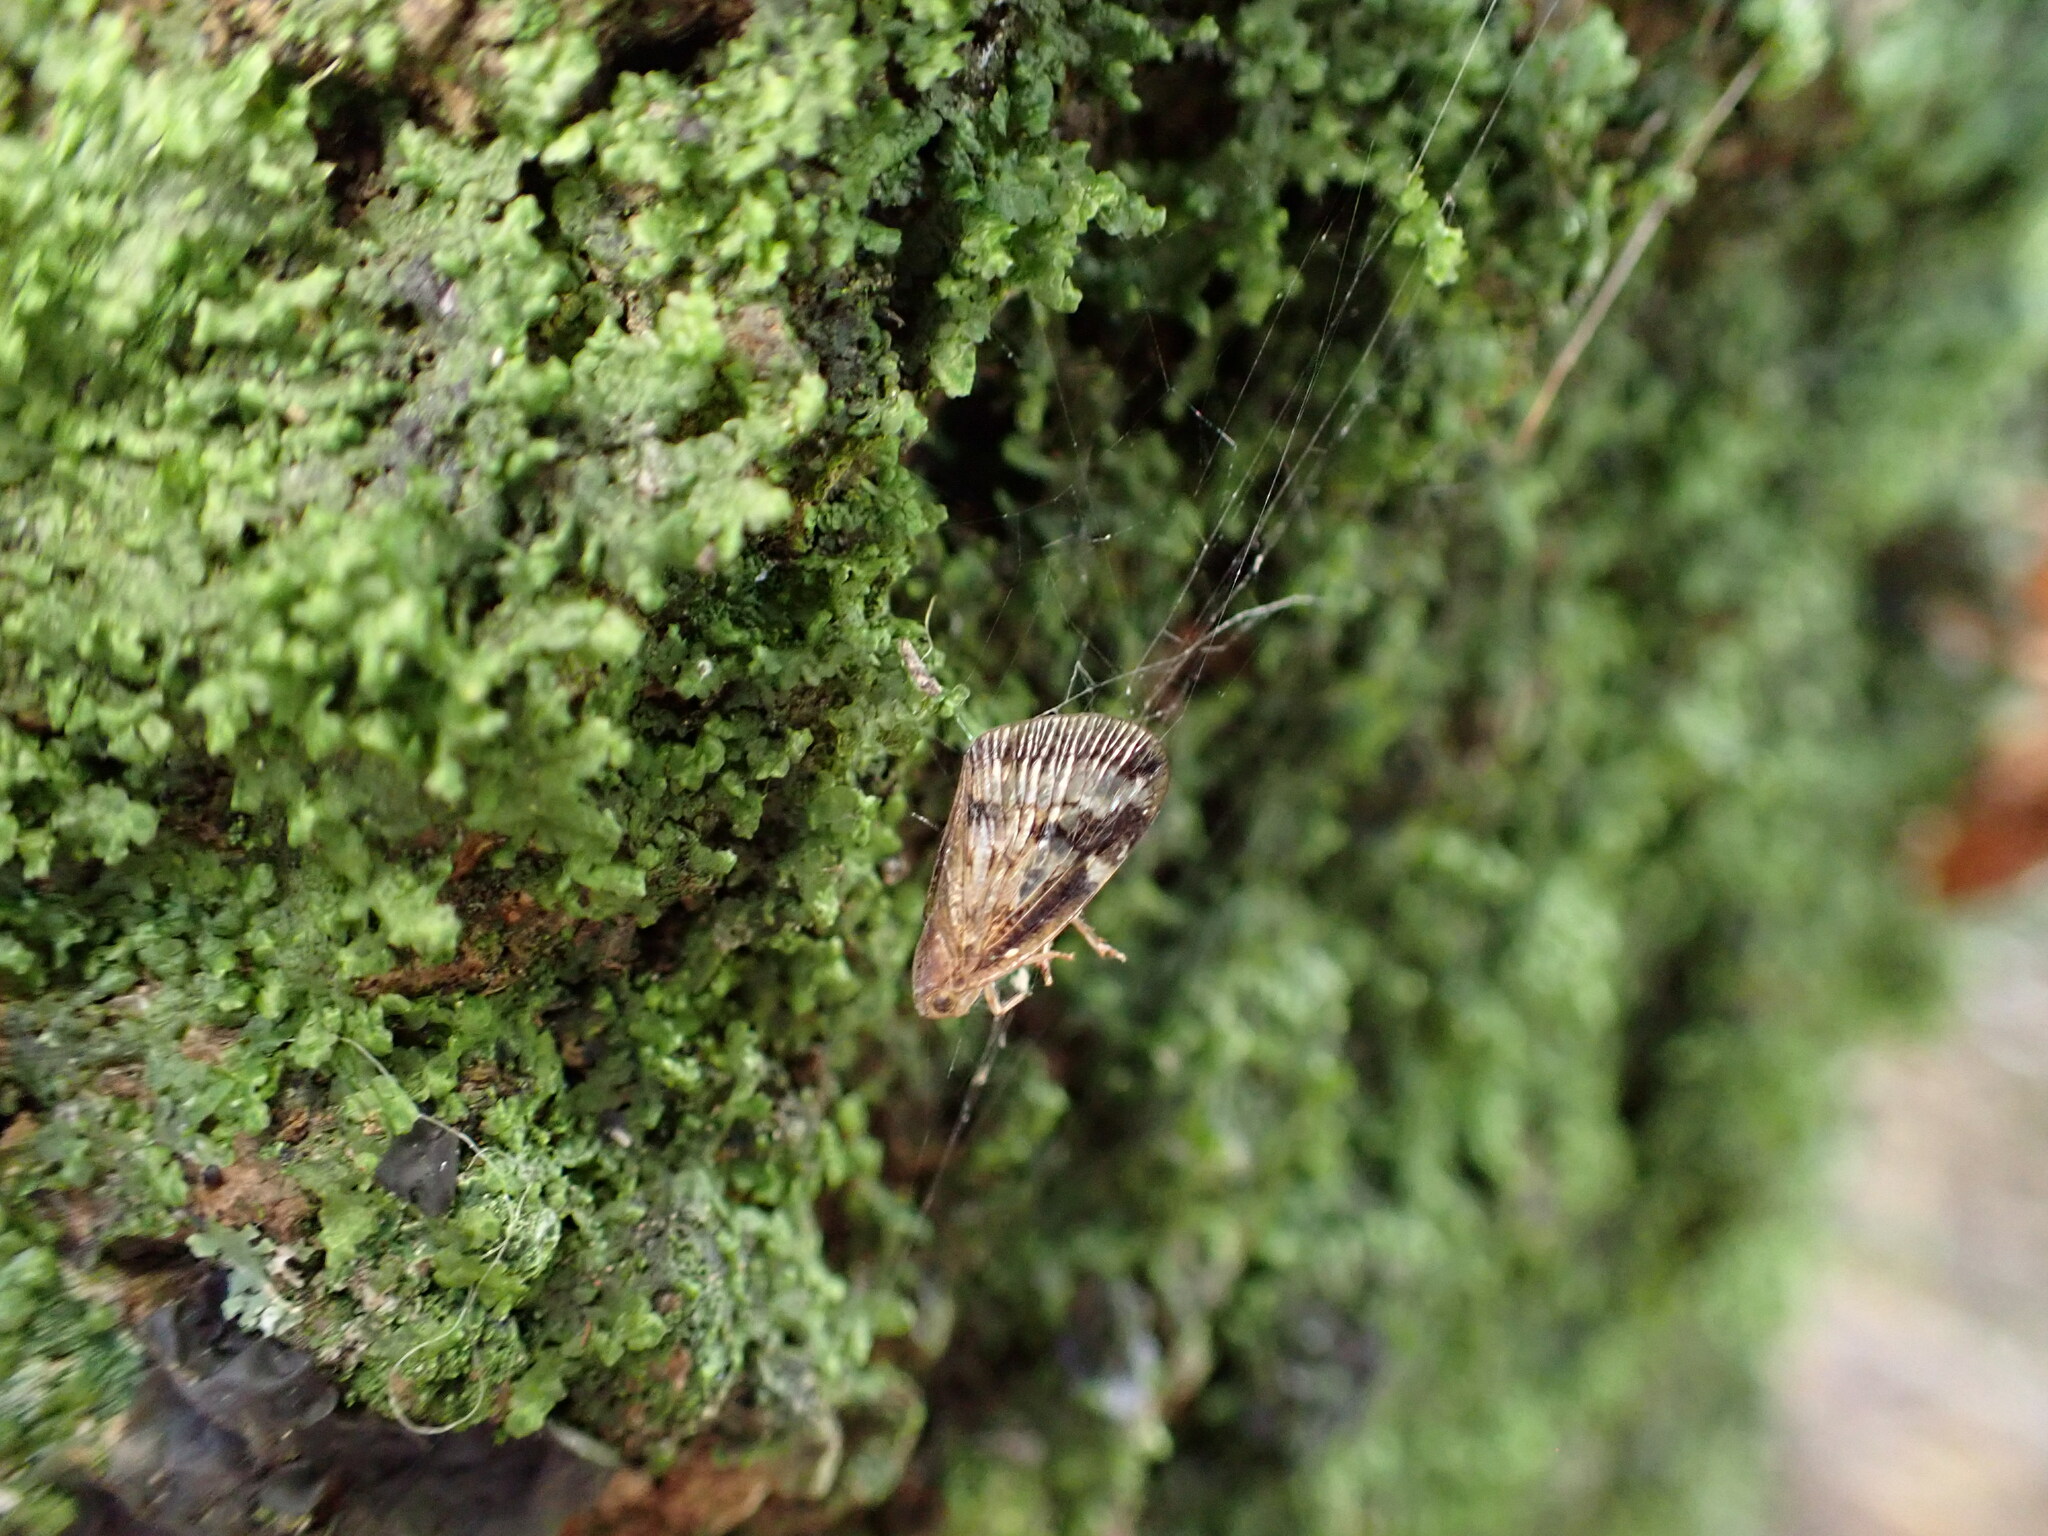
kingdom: Animalia
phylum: Arthropoda
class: Insecta
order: Hemiptera
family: Ricaniidae
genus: Scolypopa
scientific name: Scolypopa australis
